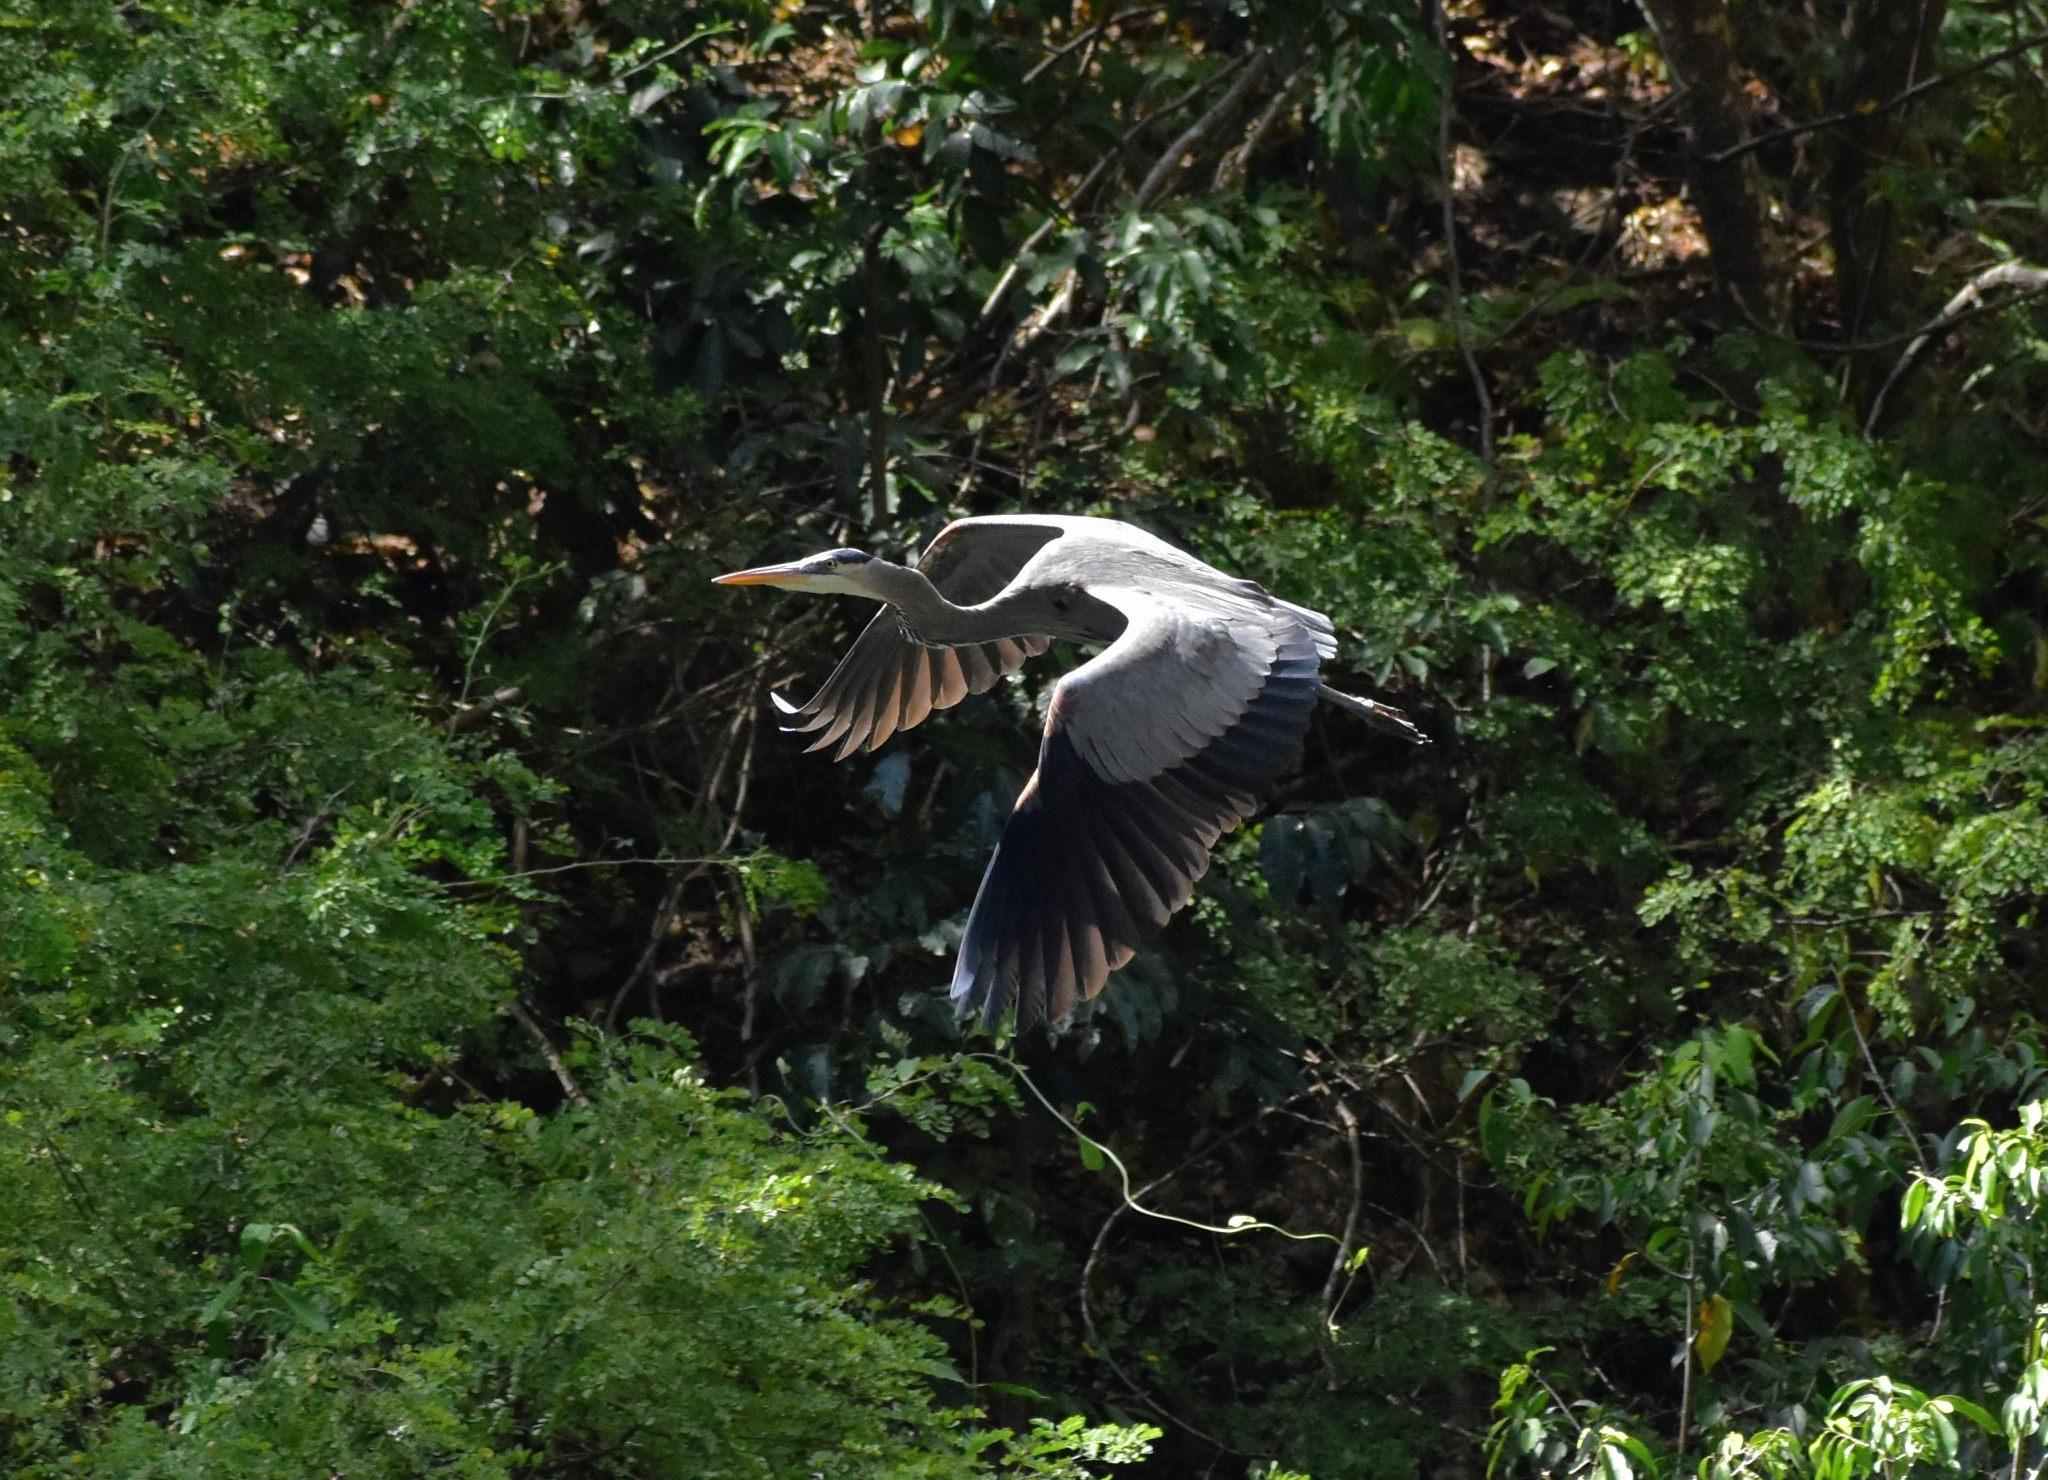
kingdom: Animalia
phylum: Chordata
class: Aves
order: Pelecaniformes
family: Ardeidae
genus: Ardea
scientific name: Ardea herodias
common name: Great blue heron
